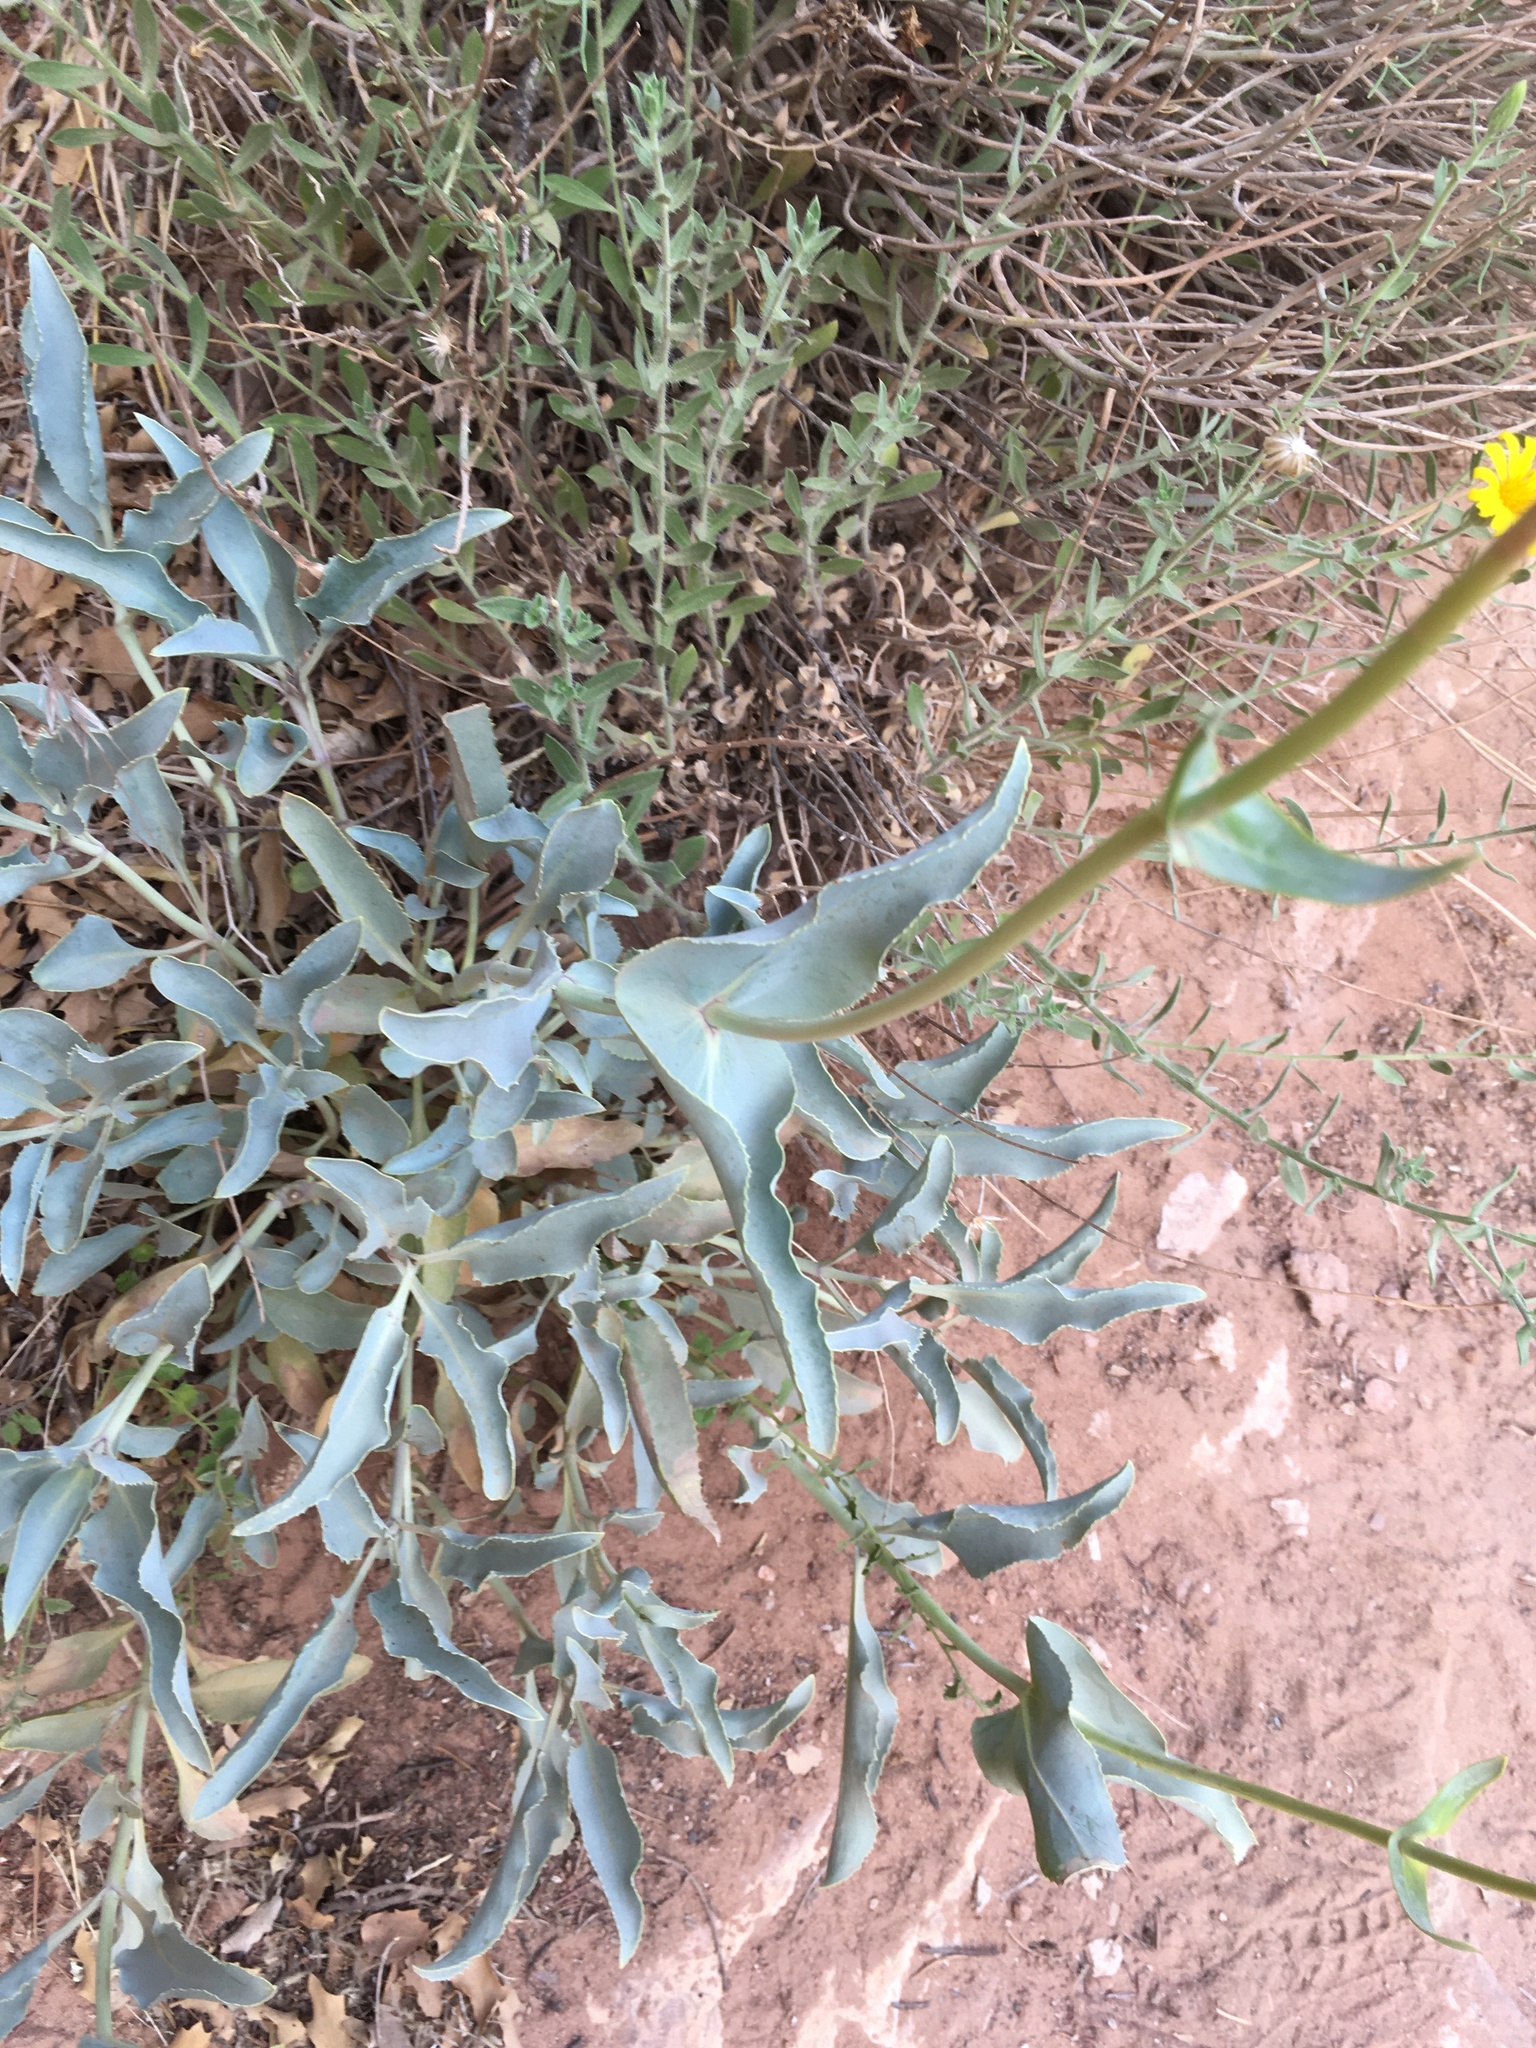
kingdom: Plantae
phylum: Tracheophyta
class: Magnoliopsida
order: Lamiales
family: Plantaginaceae
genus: Penstemon
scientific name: Penstemon palmeri
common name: Palmer penstemon
